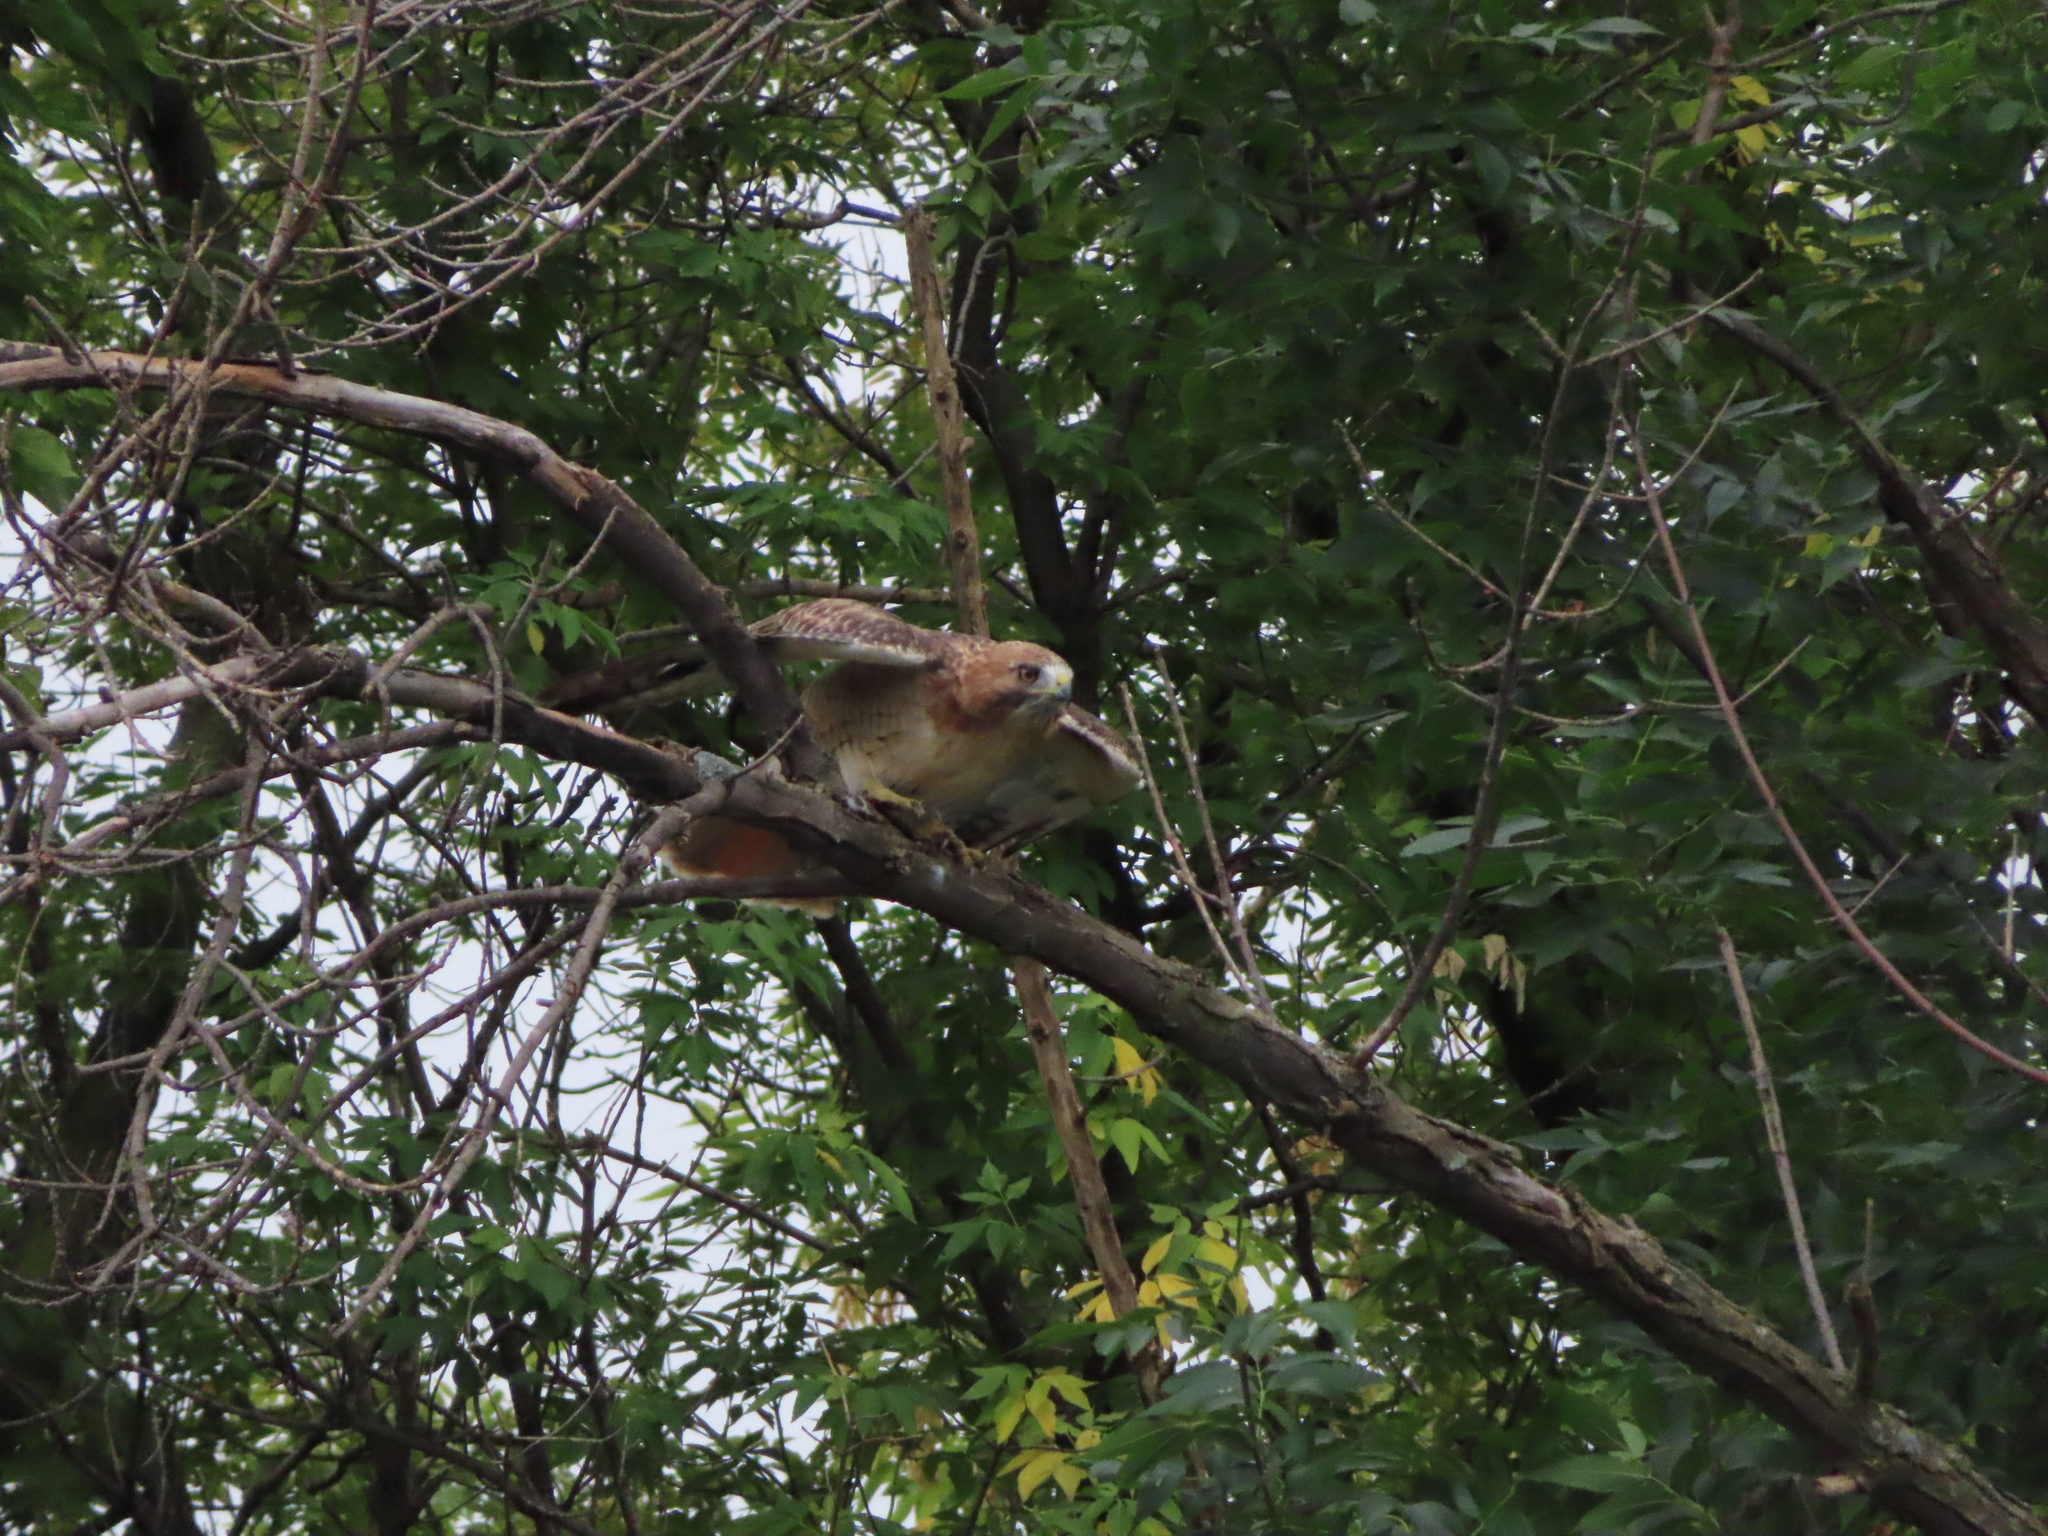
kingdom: Animalia
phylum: Chordata
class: Aves
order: Accipitriformes
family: Accipitridae
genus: Buteo
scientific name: Buteo jamaicensis
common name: Red-tailed hawk
